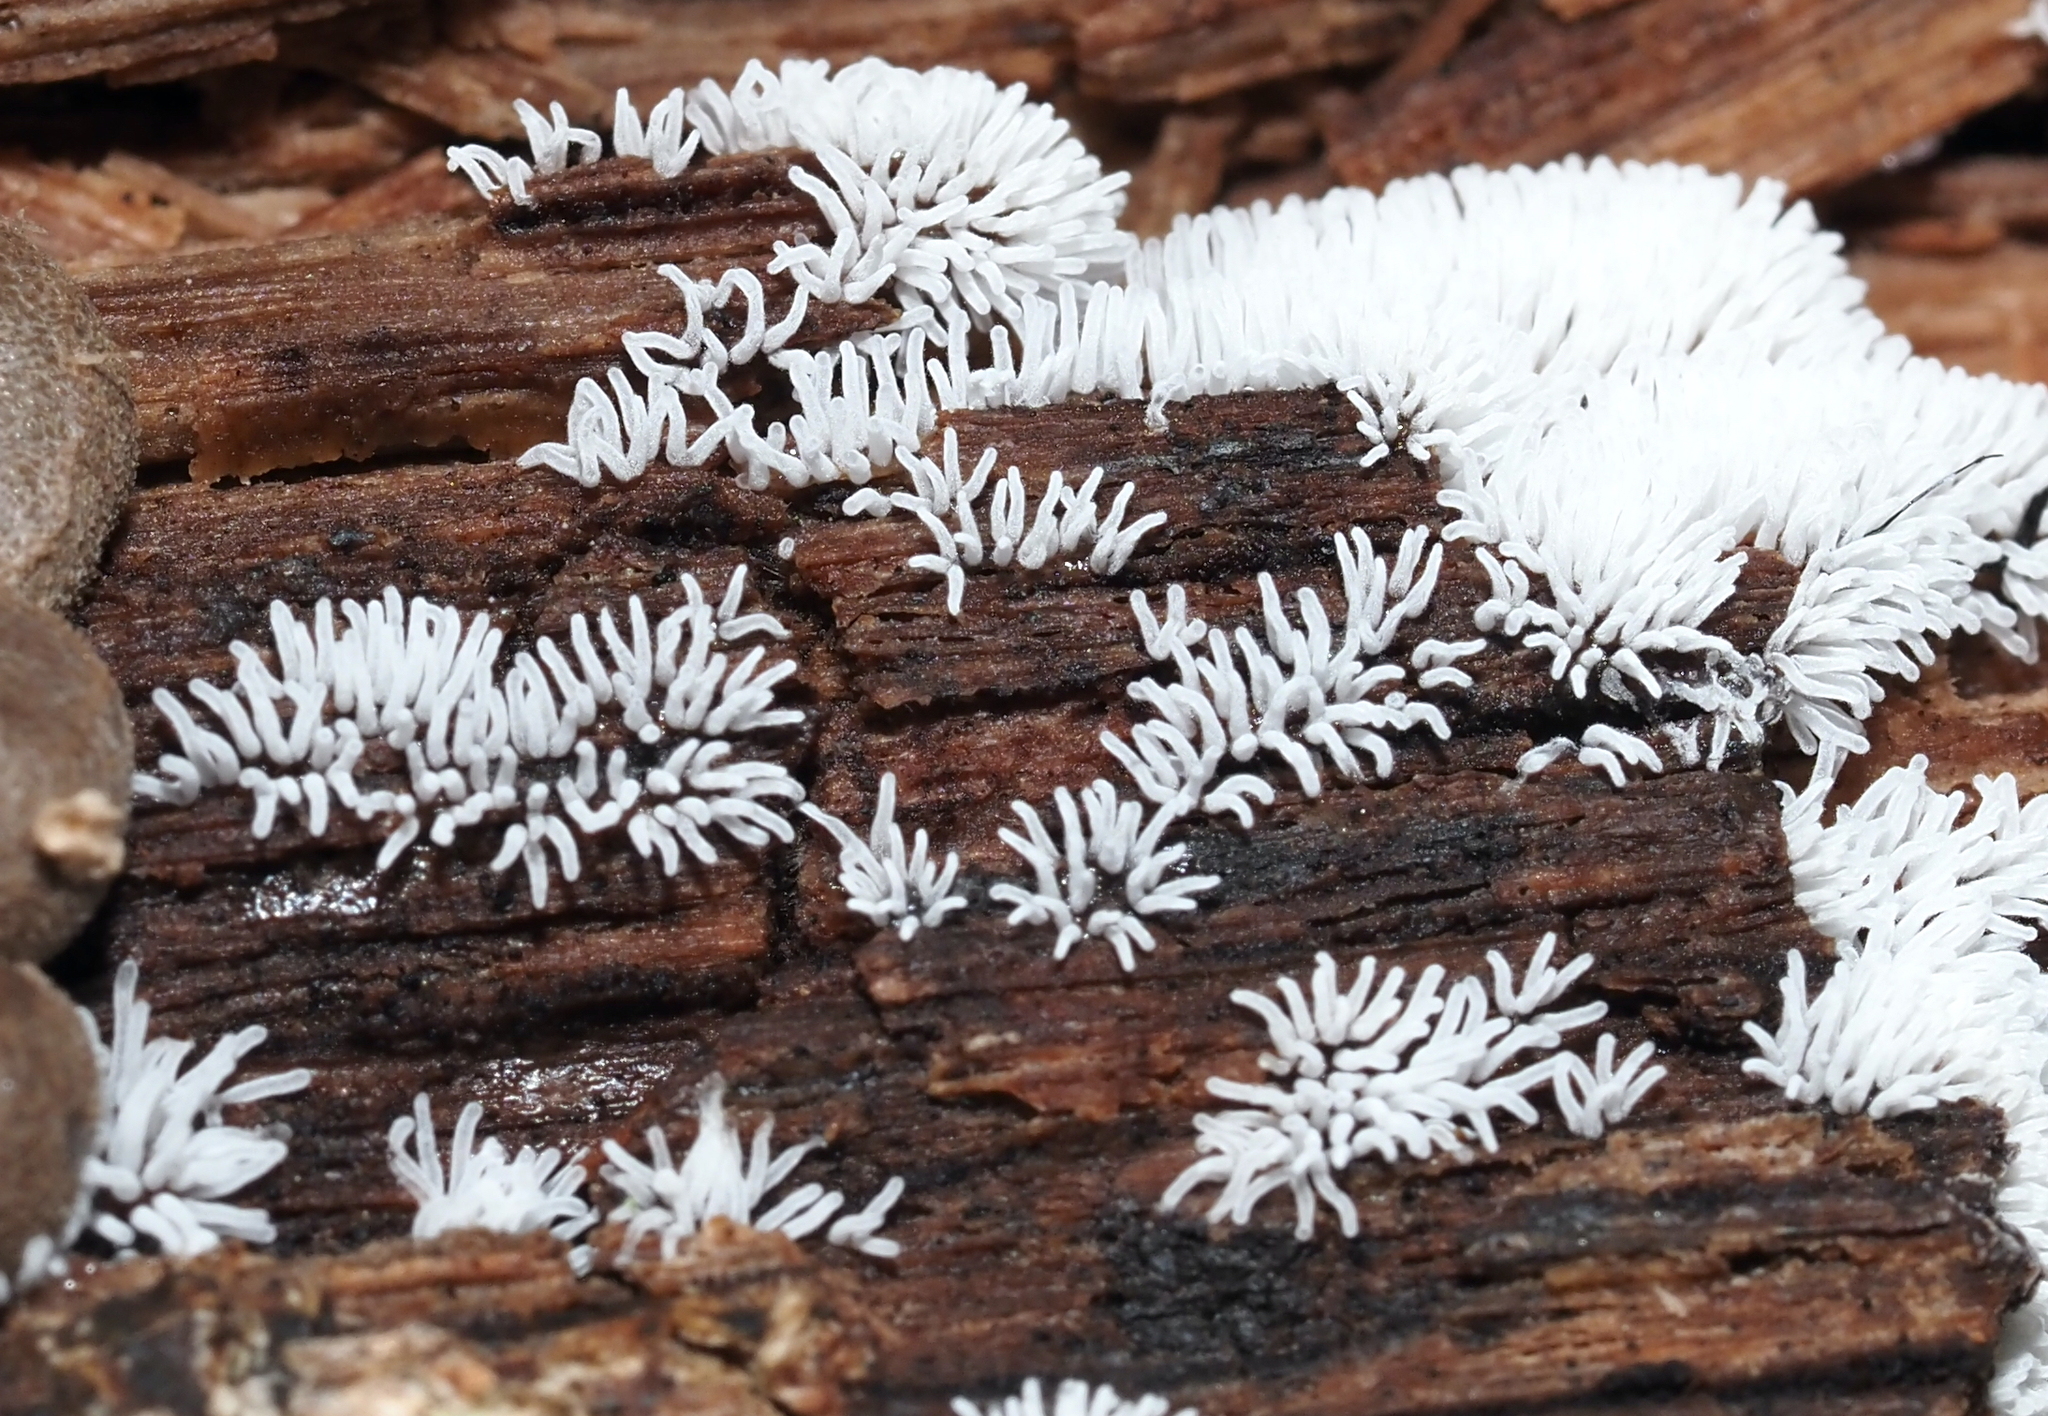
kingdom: Protozoa
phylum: Mycetozoa
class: Protosteliomycetes
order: Ceratiomyxales
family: Ceratiomyxaceae
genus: Ceratiomyxa
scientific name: Ceratiomyxa fruticulosa
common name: Honeycomb coral slime mold
